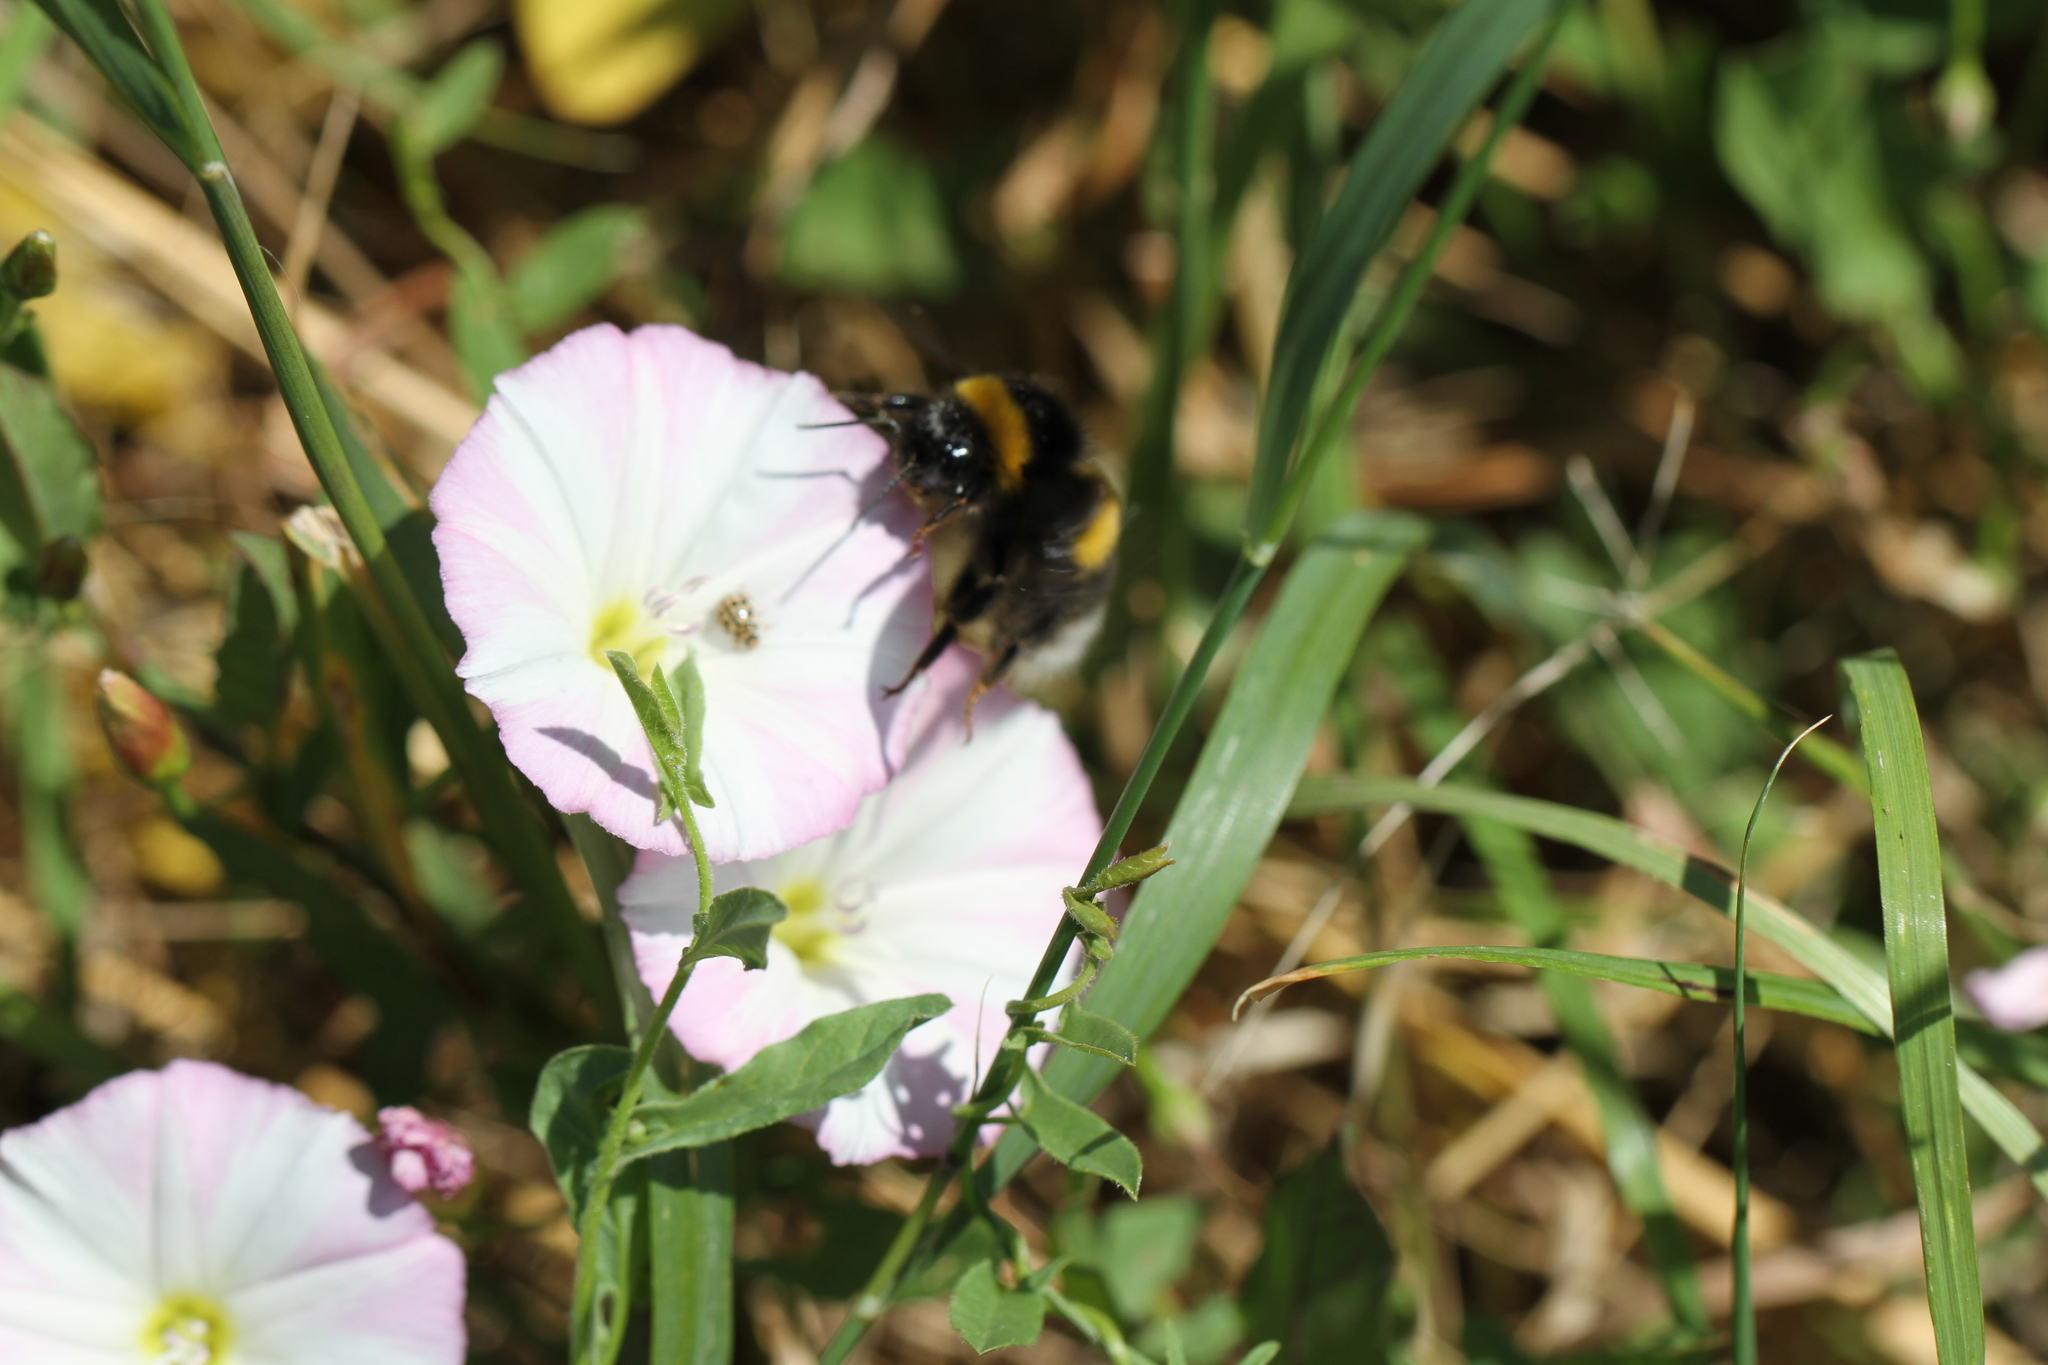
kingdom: Animalia
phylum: Arthropoda
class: Insecta
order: Hymenoptera
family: Apidae
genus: Bombus
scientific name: Bombus
